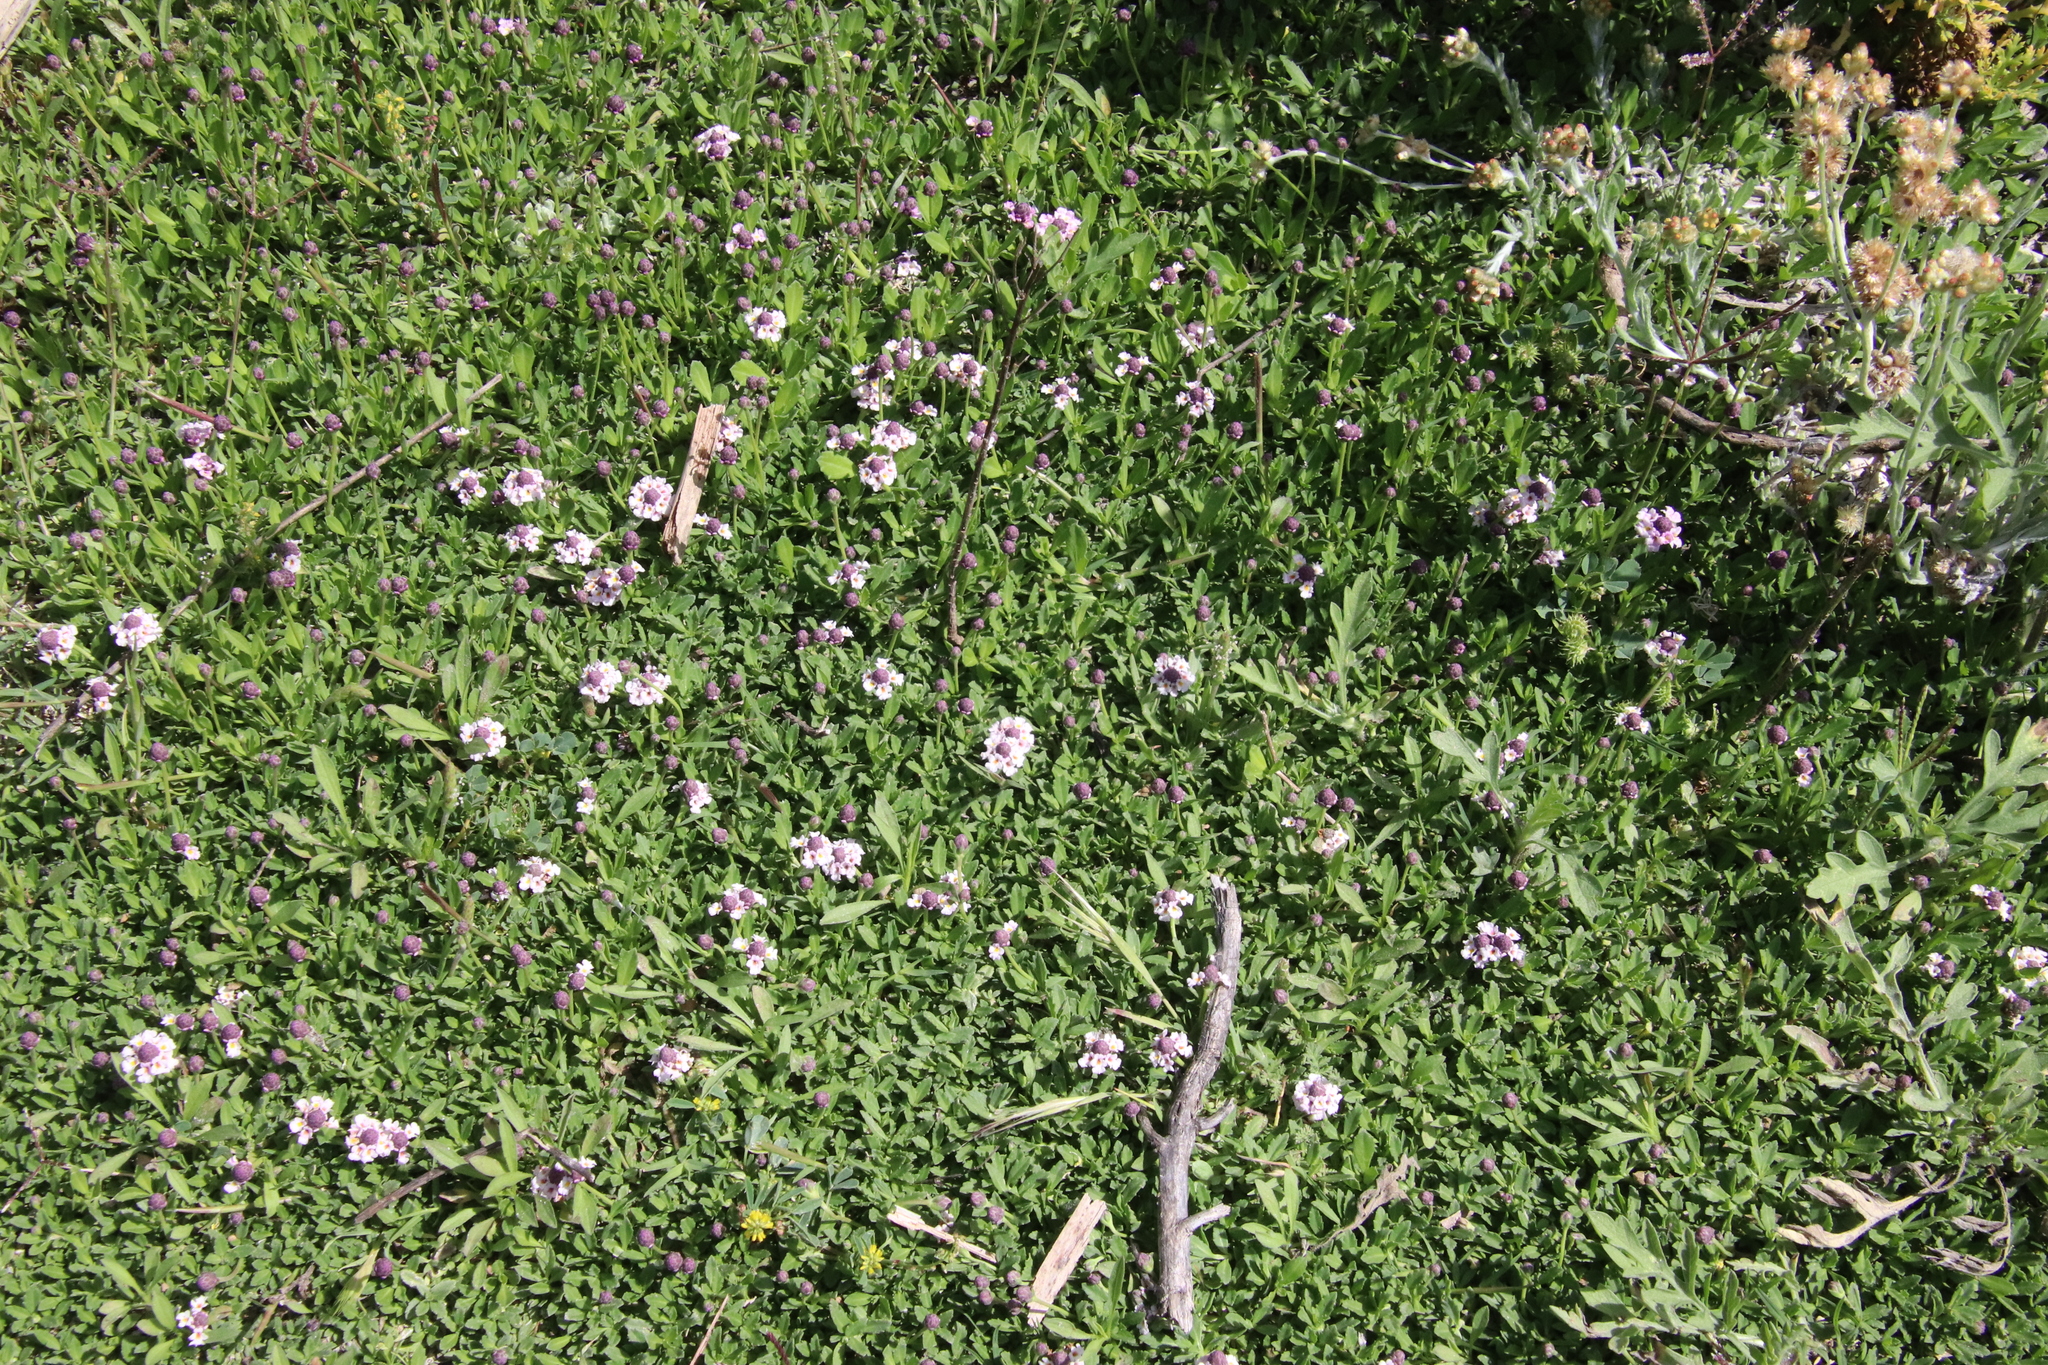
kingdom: Plantae
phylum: Tracheophyta
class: Magnoliopsida
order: Lamiales
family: Verbenaceae
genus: Phyla
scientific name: Phyla nodiflora
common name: Frogfruit
